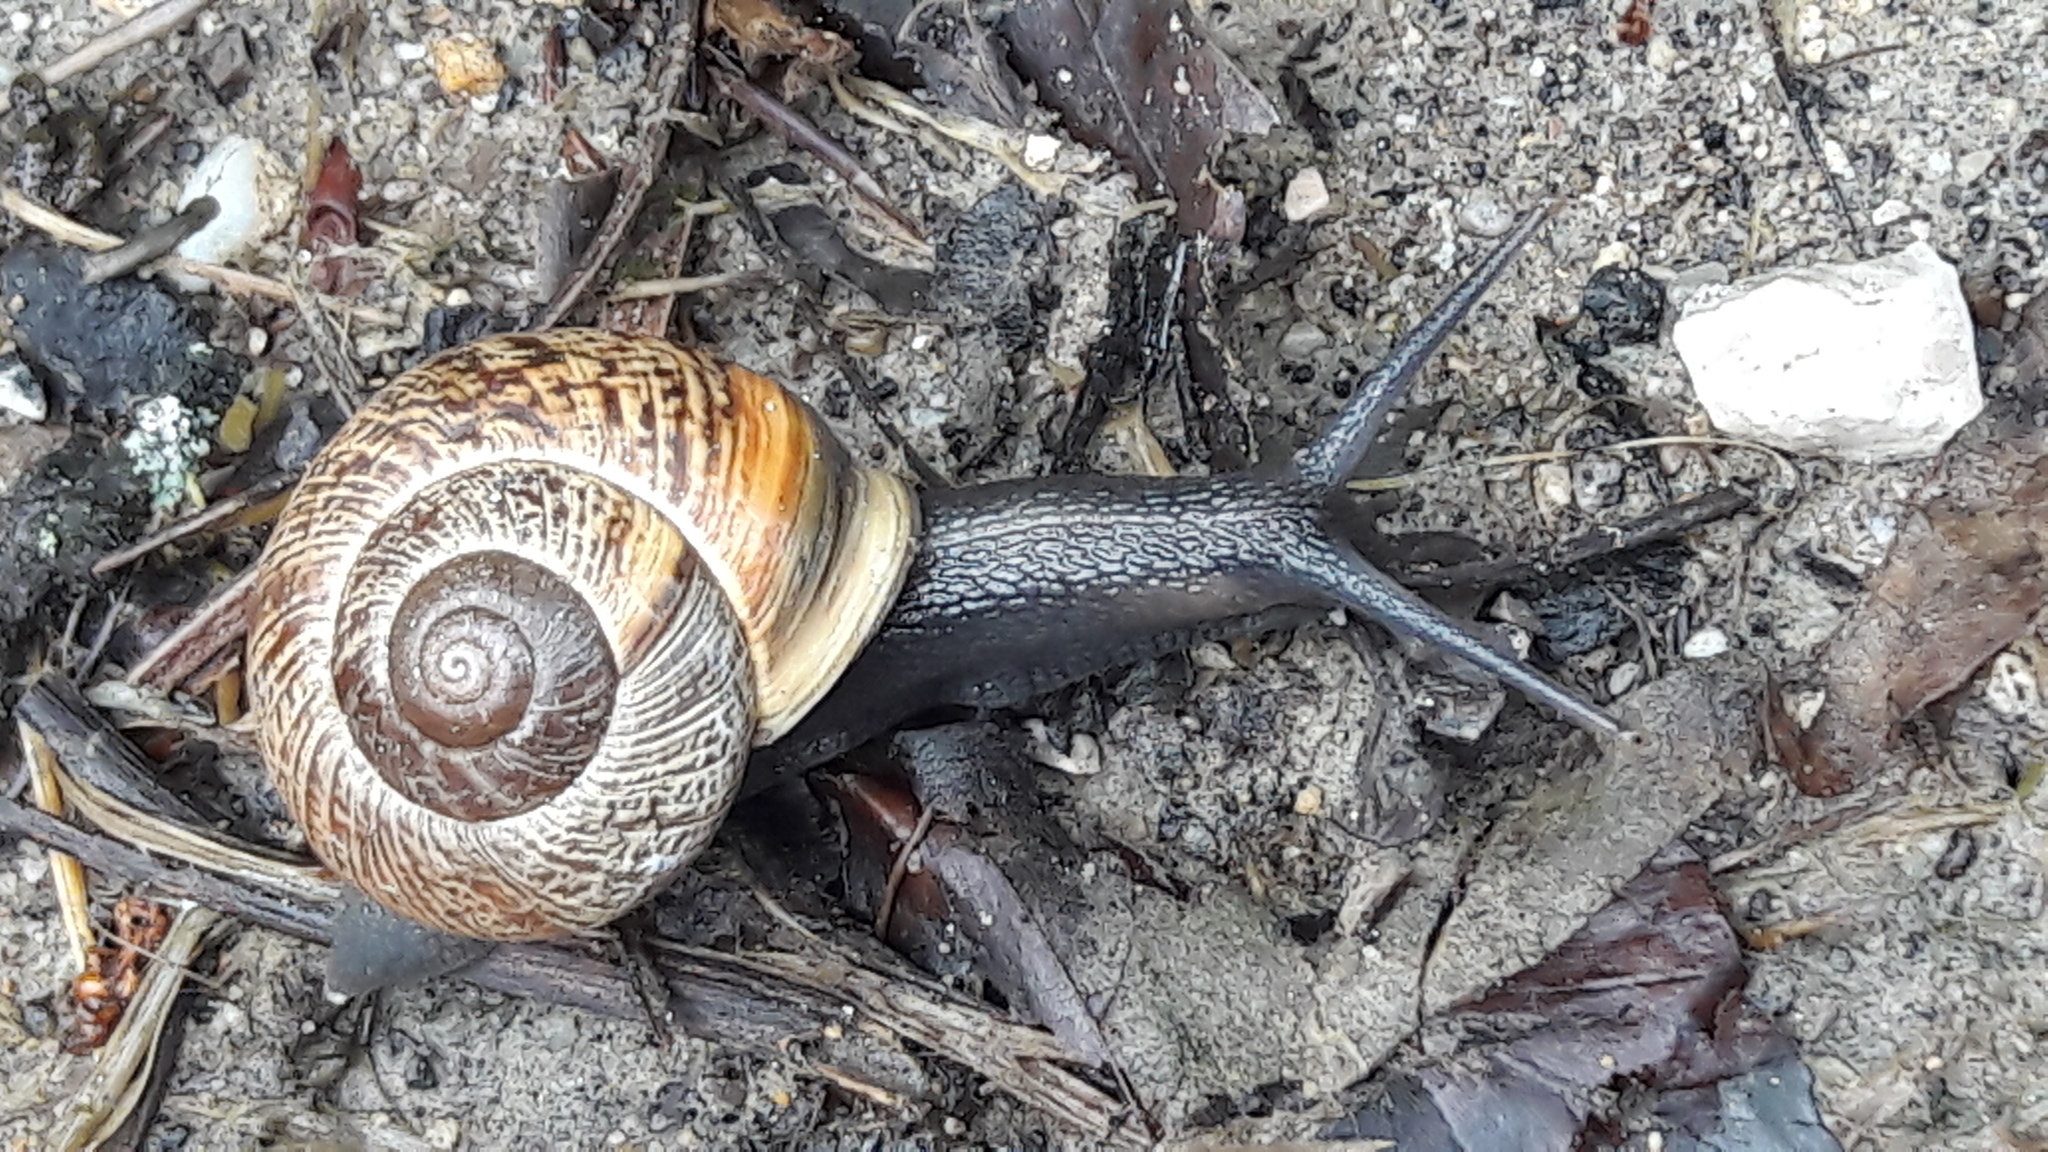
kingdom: Animalia
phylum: Mollusca
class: Gastropoda
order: Stylommatophora
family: Helicidae
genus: Arianta
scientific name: Arianta arbustorum
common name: Copse snail
